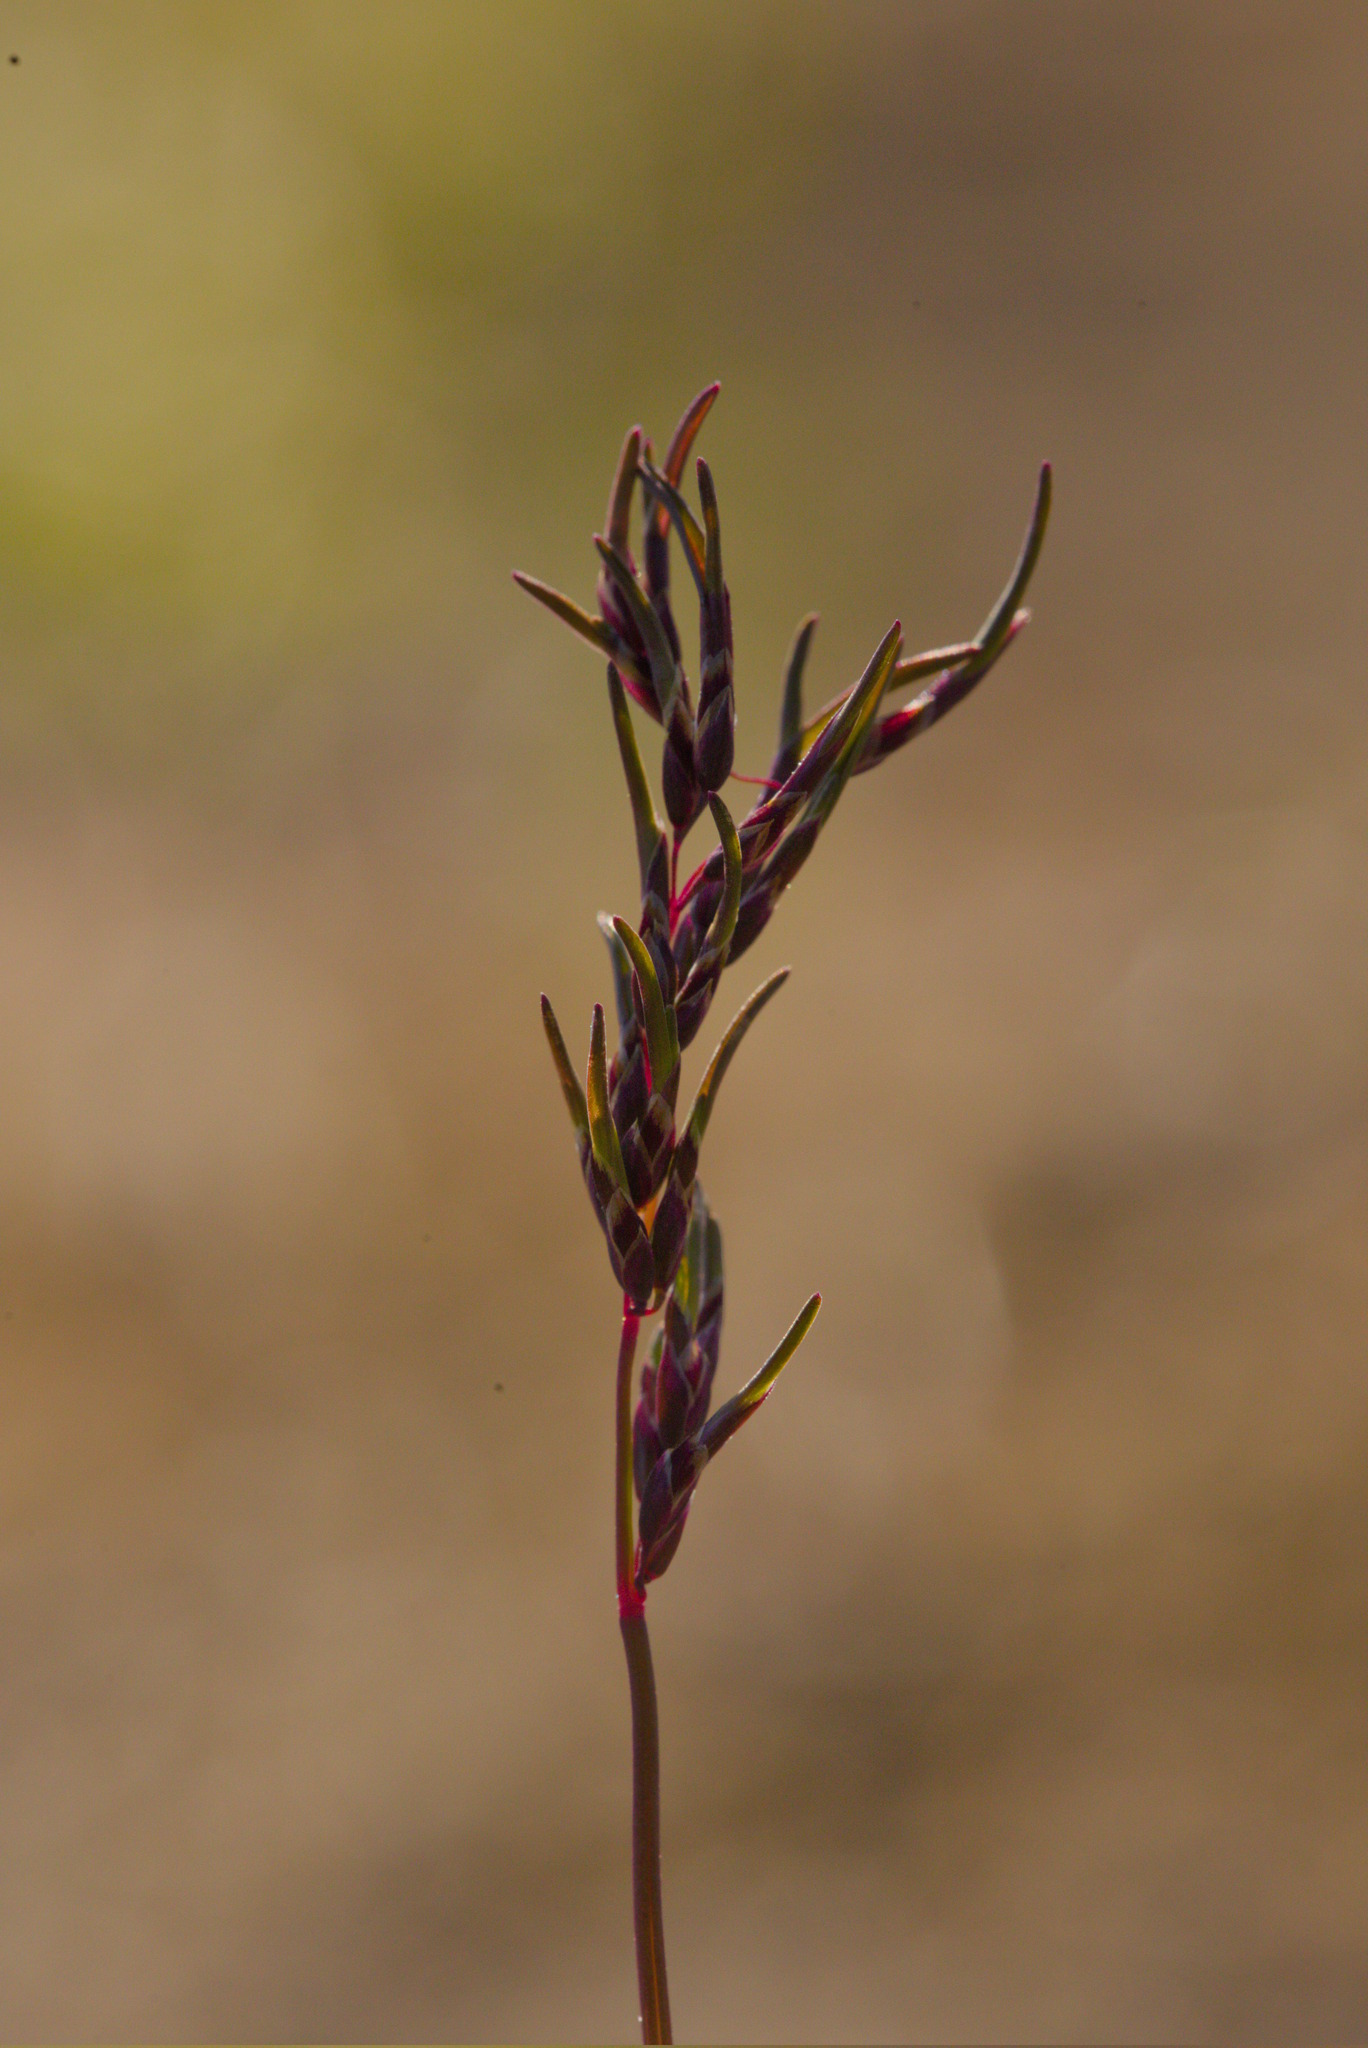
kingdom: Plantae
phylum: Tracheophyta
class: Liliopsida
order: Poales
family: Poaceae
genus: Poa
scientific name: Poa arctica
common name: Arctic bluegrass
